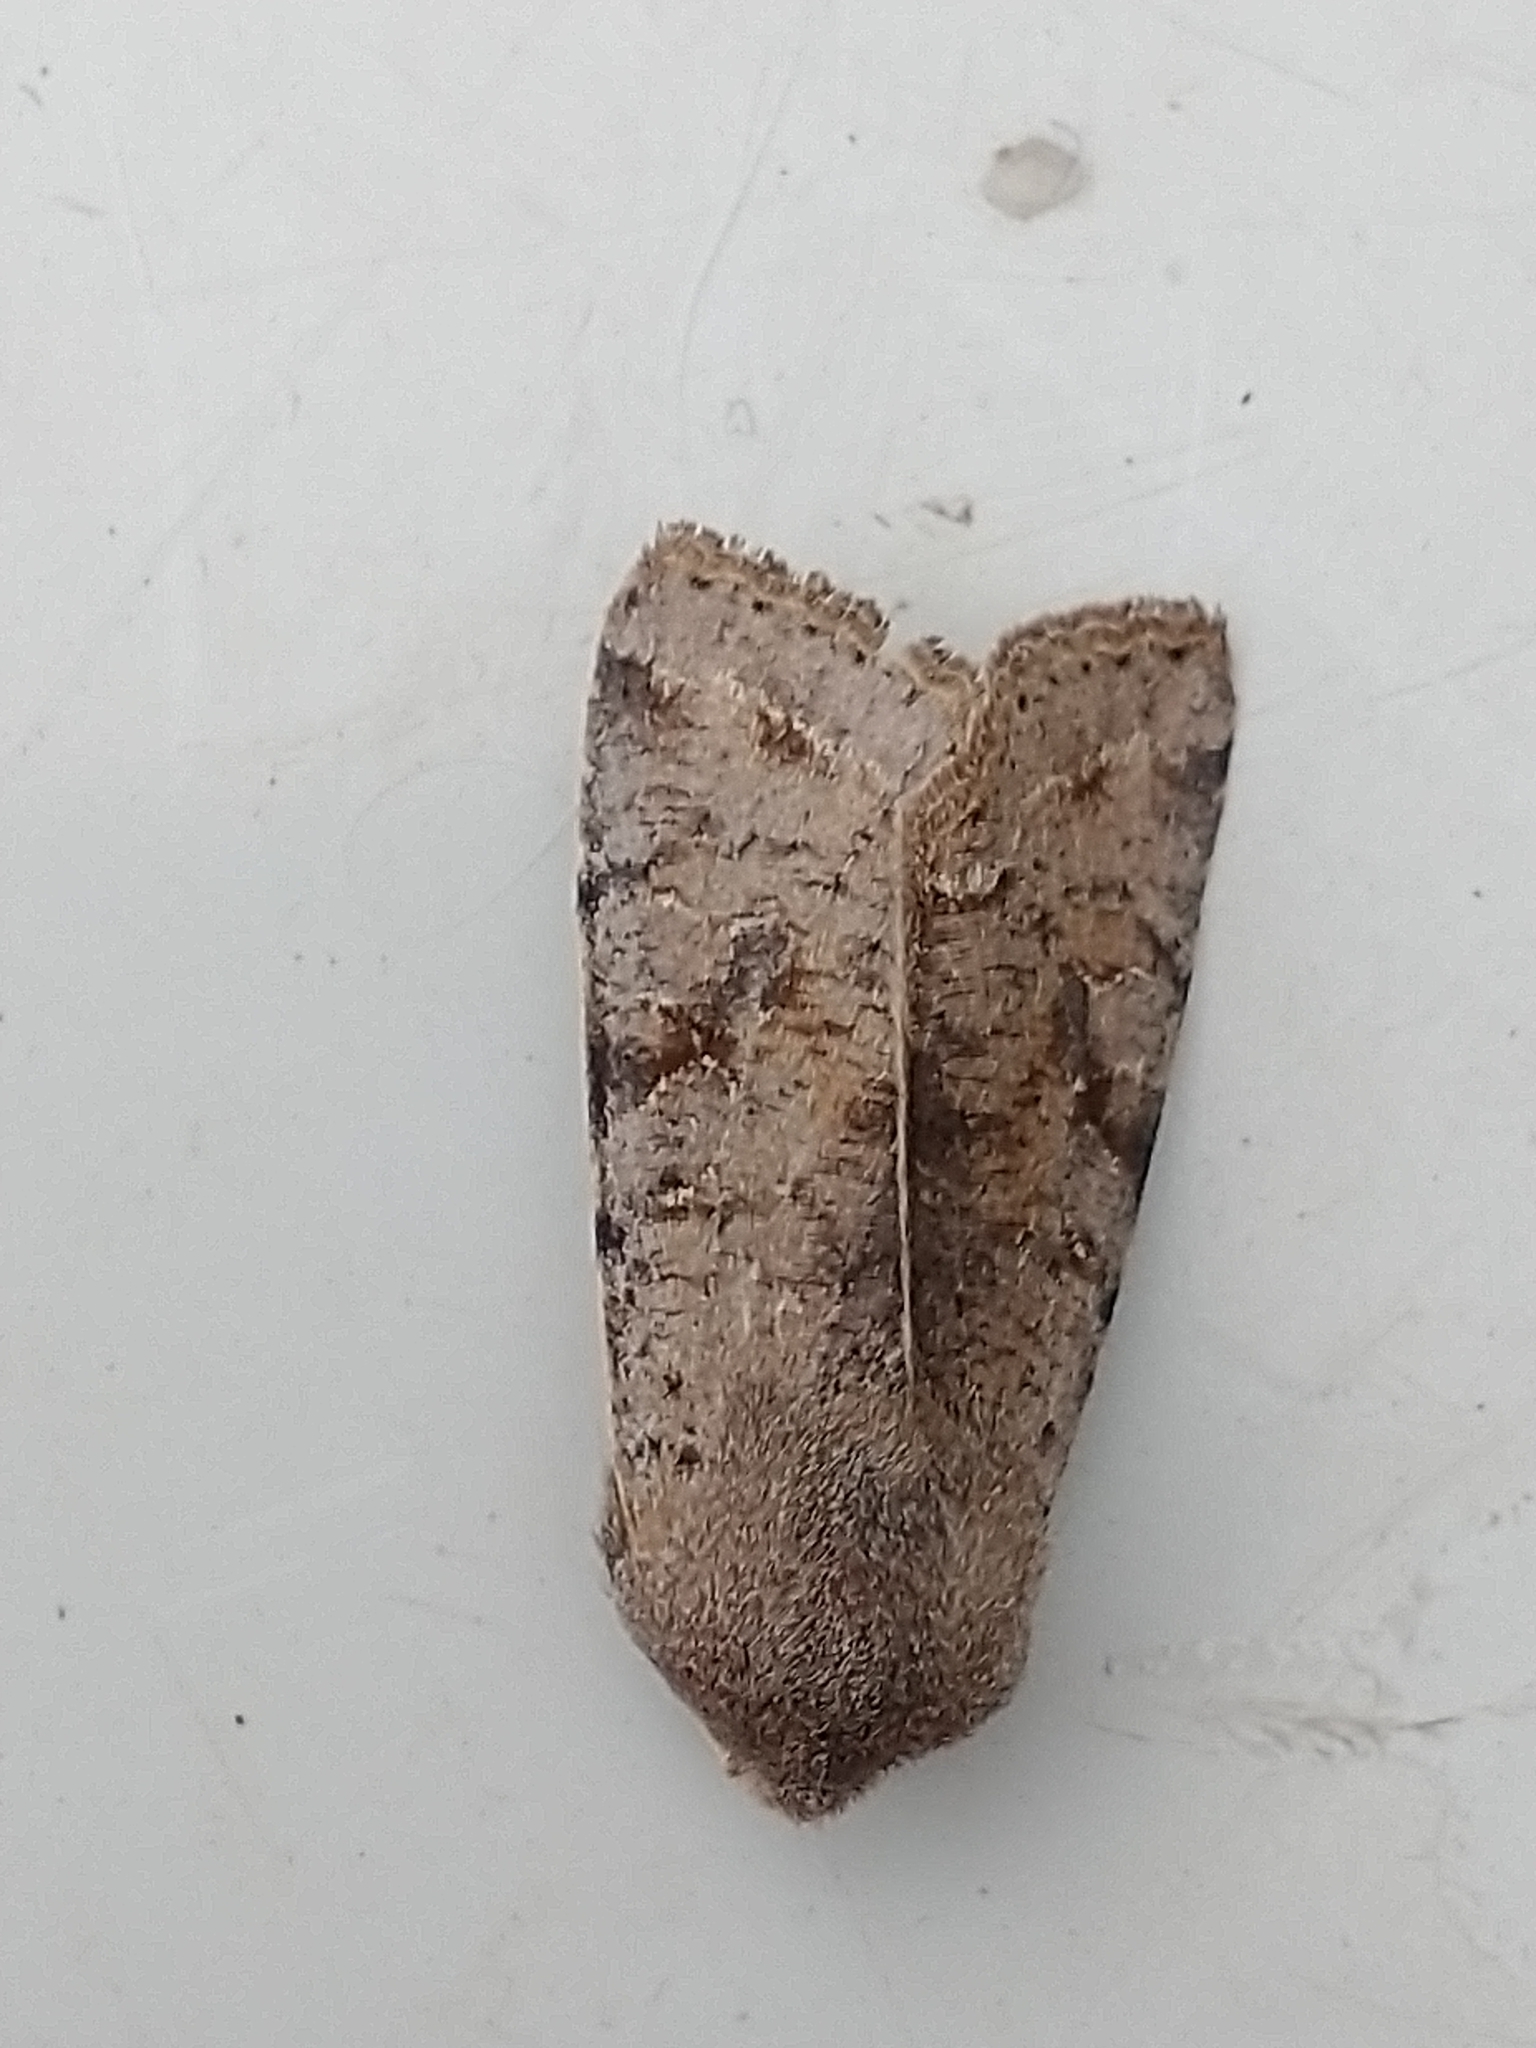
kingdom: Animalia
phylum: Arthropoda
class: Insecta
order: Lepidoptera
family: Noctuidae
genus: Orthosia
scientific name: Orthosia incerta
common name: Clouded drab
